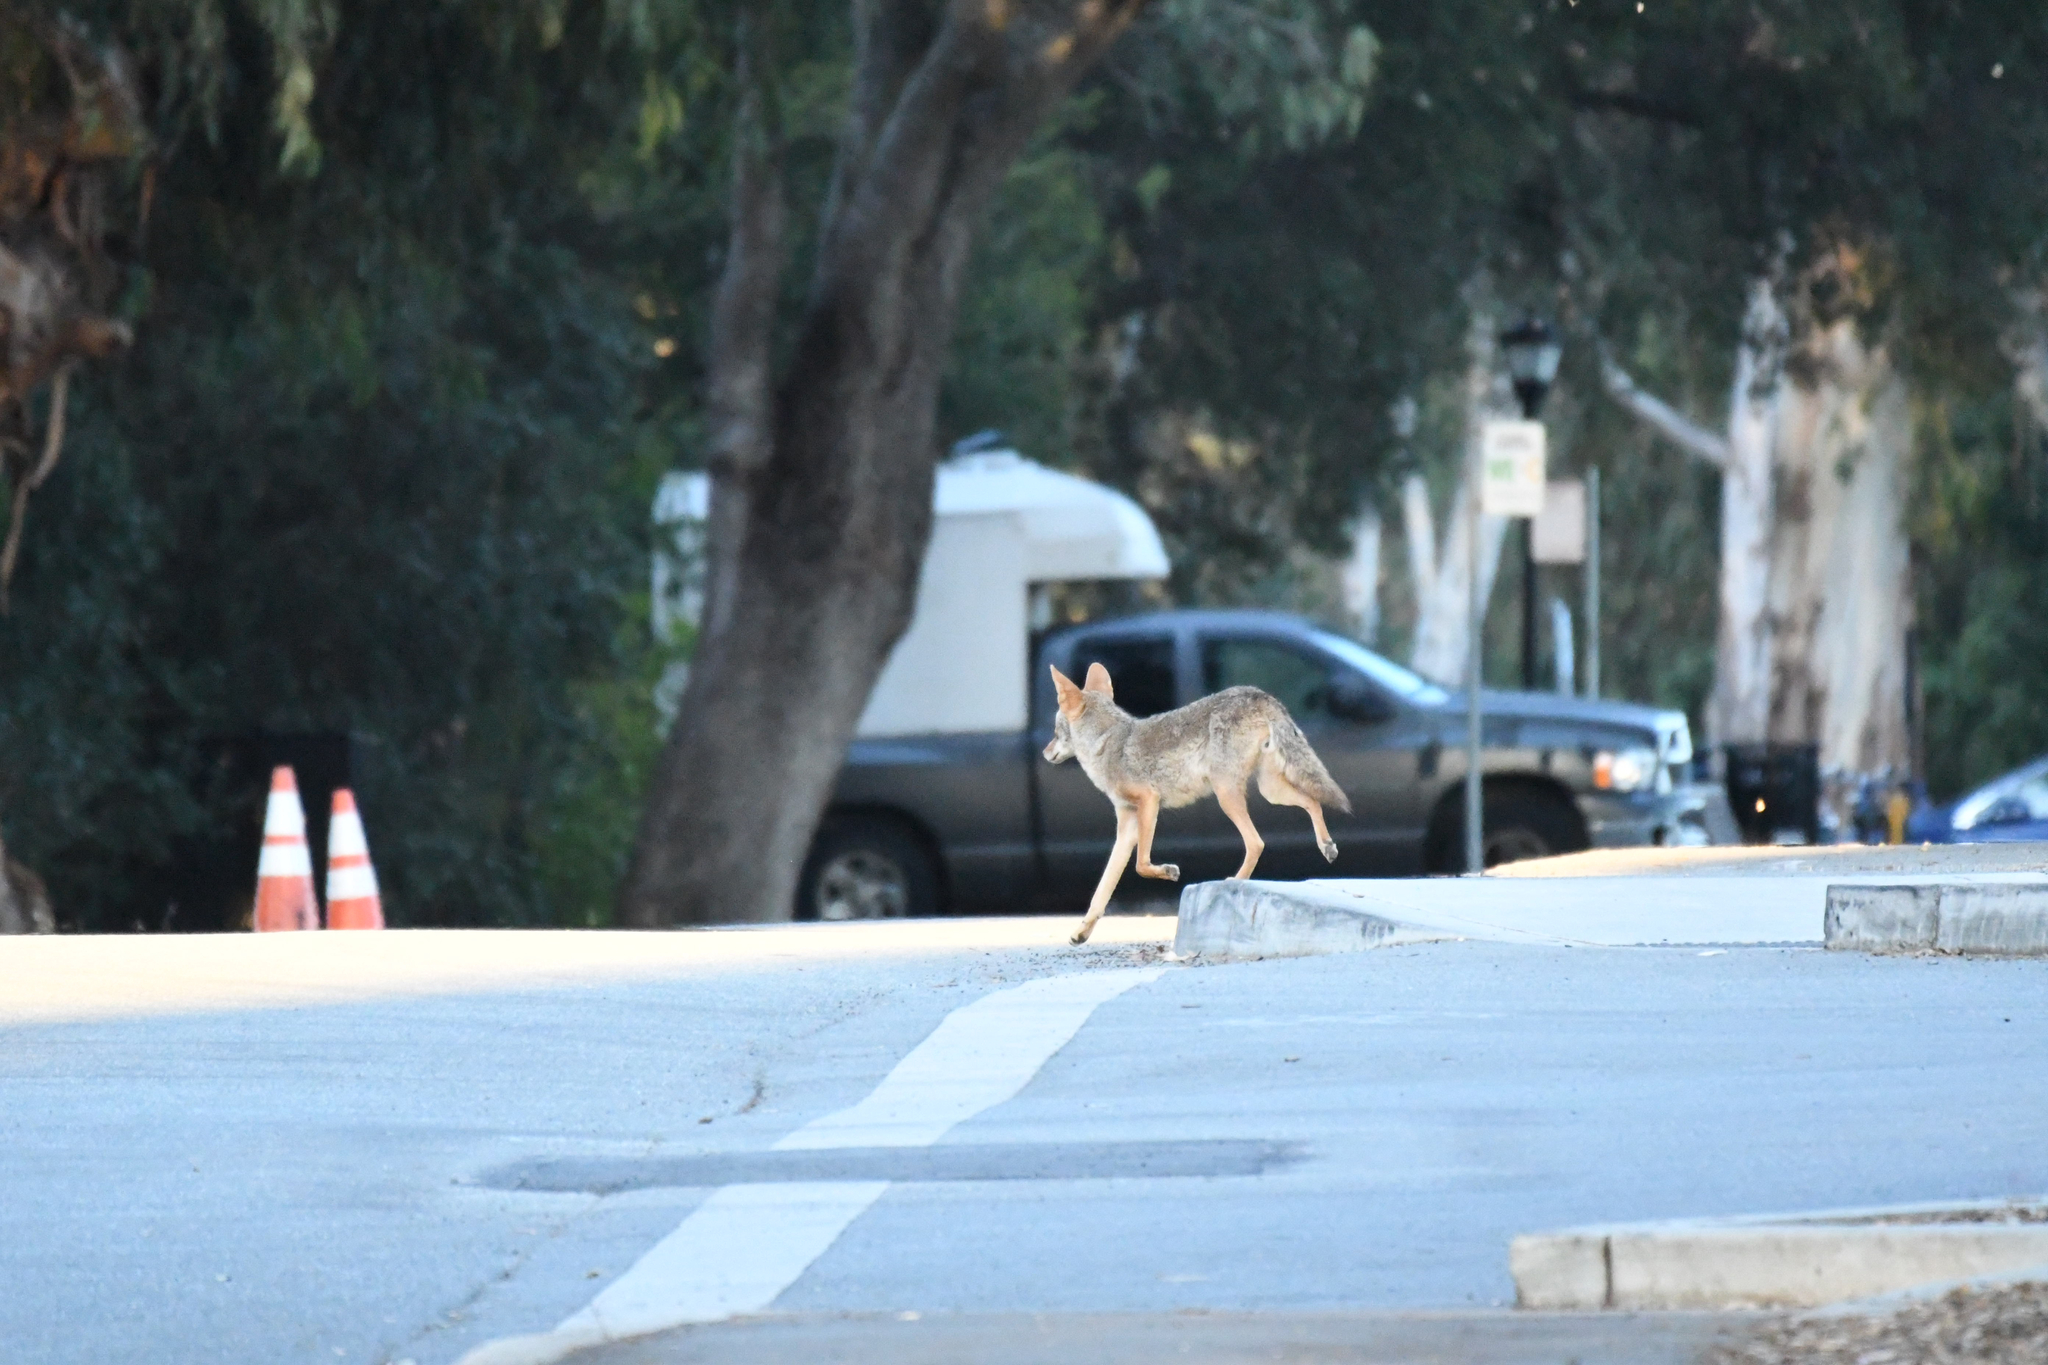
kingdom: Animalia
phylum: Chordata
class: Mammalia
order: Carnivora
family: Canidae
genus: Canis
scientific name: Canis latrans
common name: Coyote
